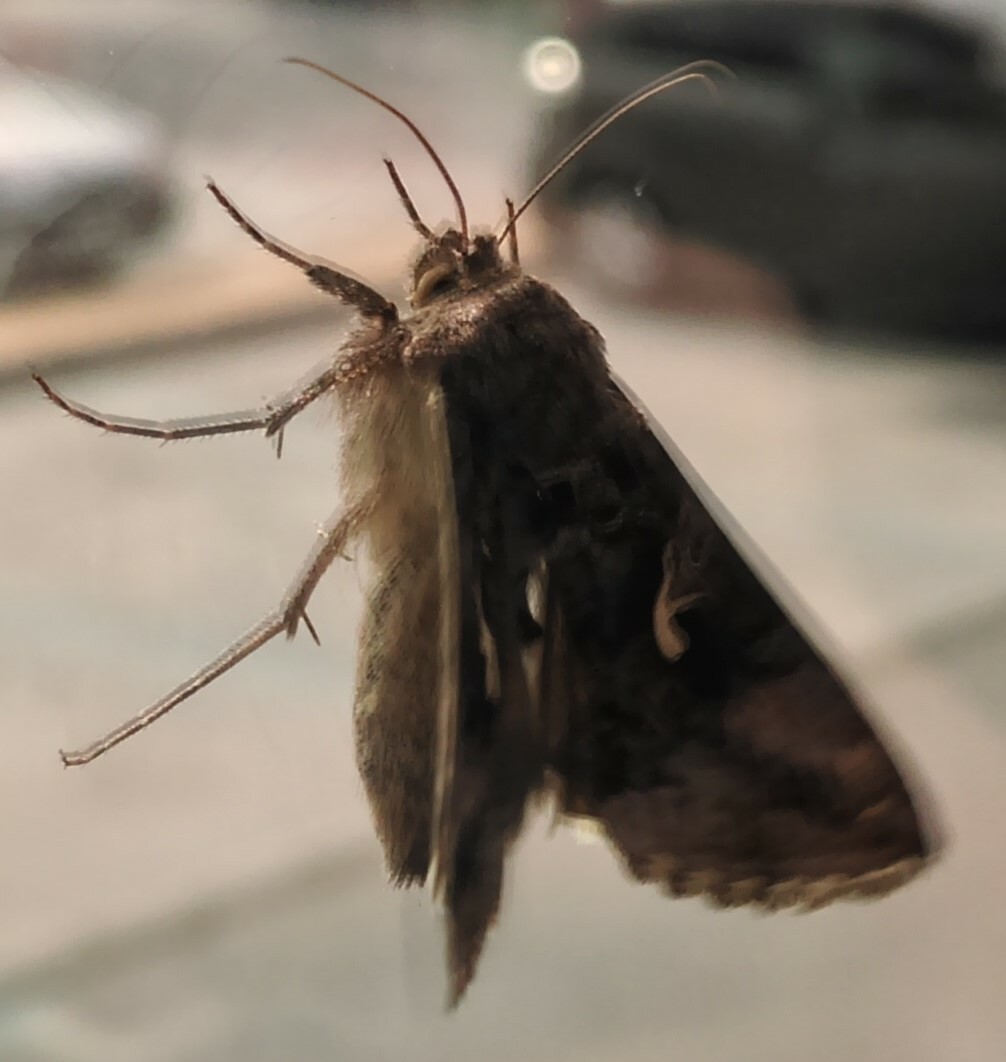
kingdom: Animalia
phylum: Arthropoda
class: Insecta
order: Lepidoptera
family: Noctuidae
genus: Autographa
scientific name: Autographa gamma
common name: Silver y
